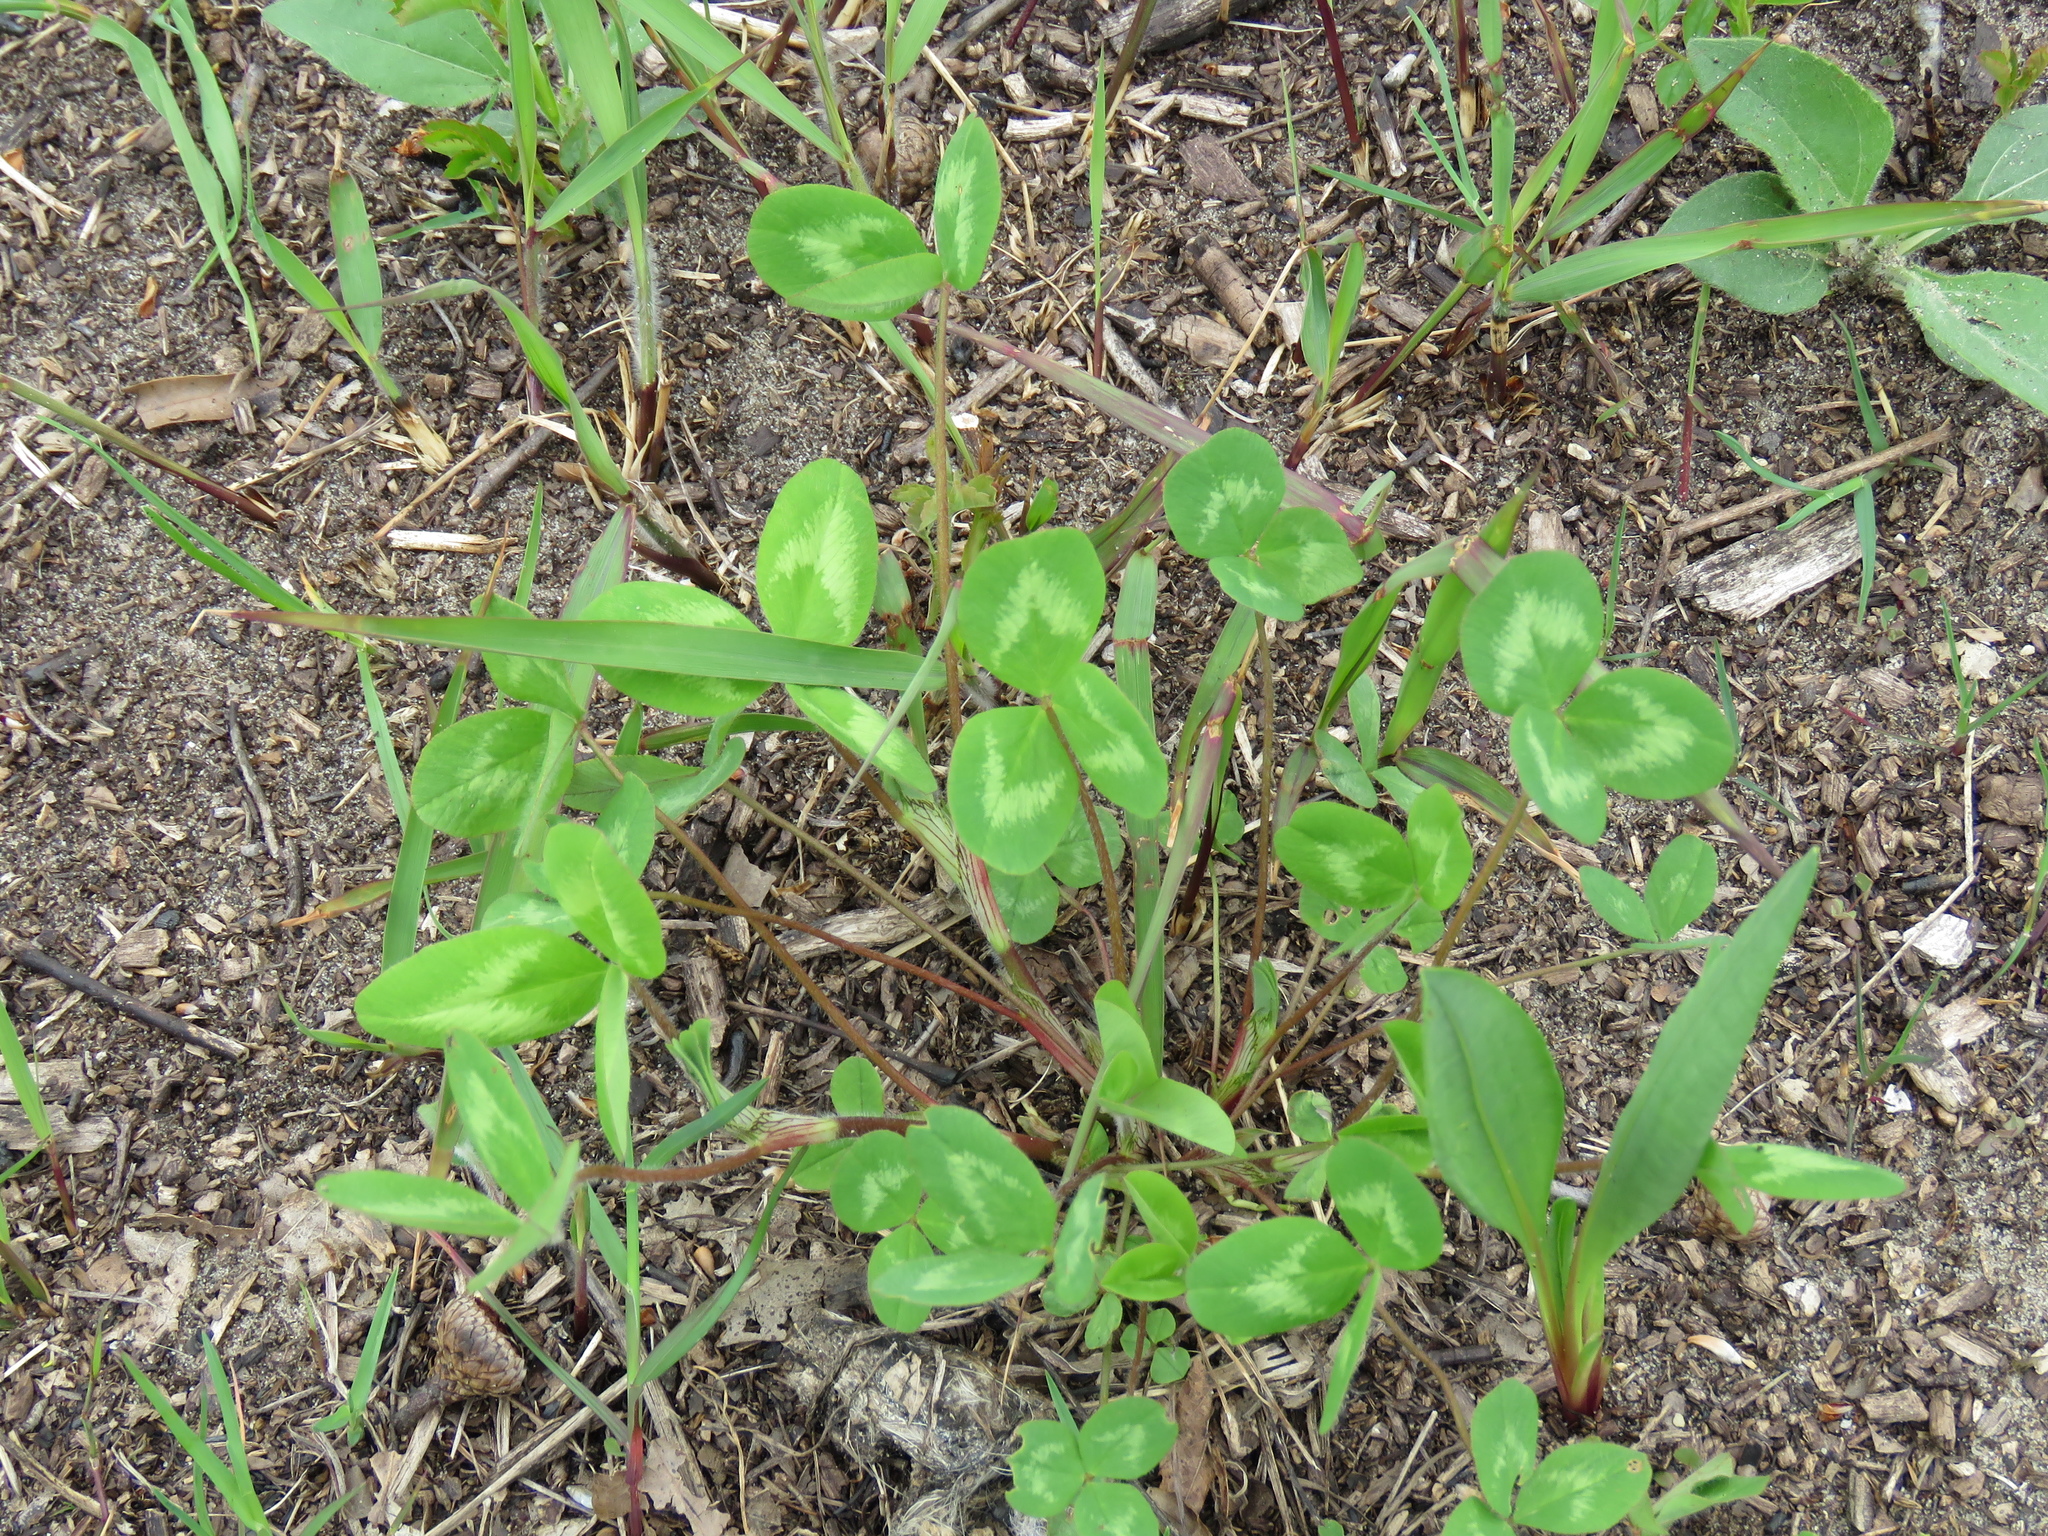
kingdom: Plantae
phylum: Tracheophyta
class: Magnoliopsida
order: Fabales
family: Fabaceae
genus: Trifolium
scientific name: Trifolium pratense
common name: Red clover
